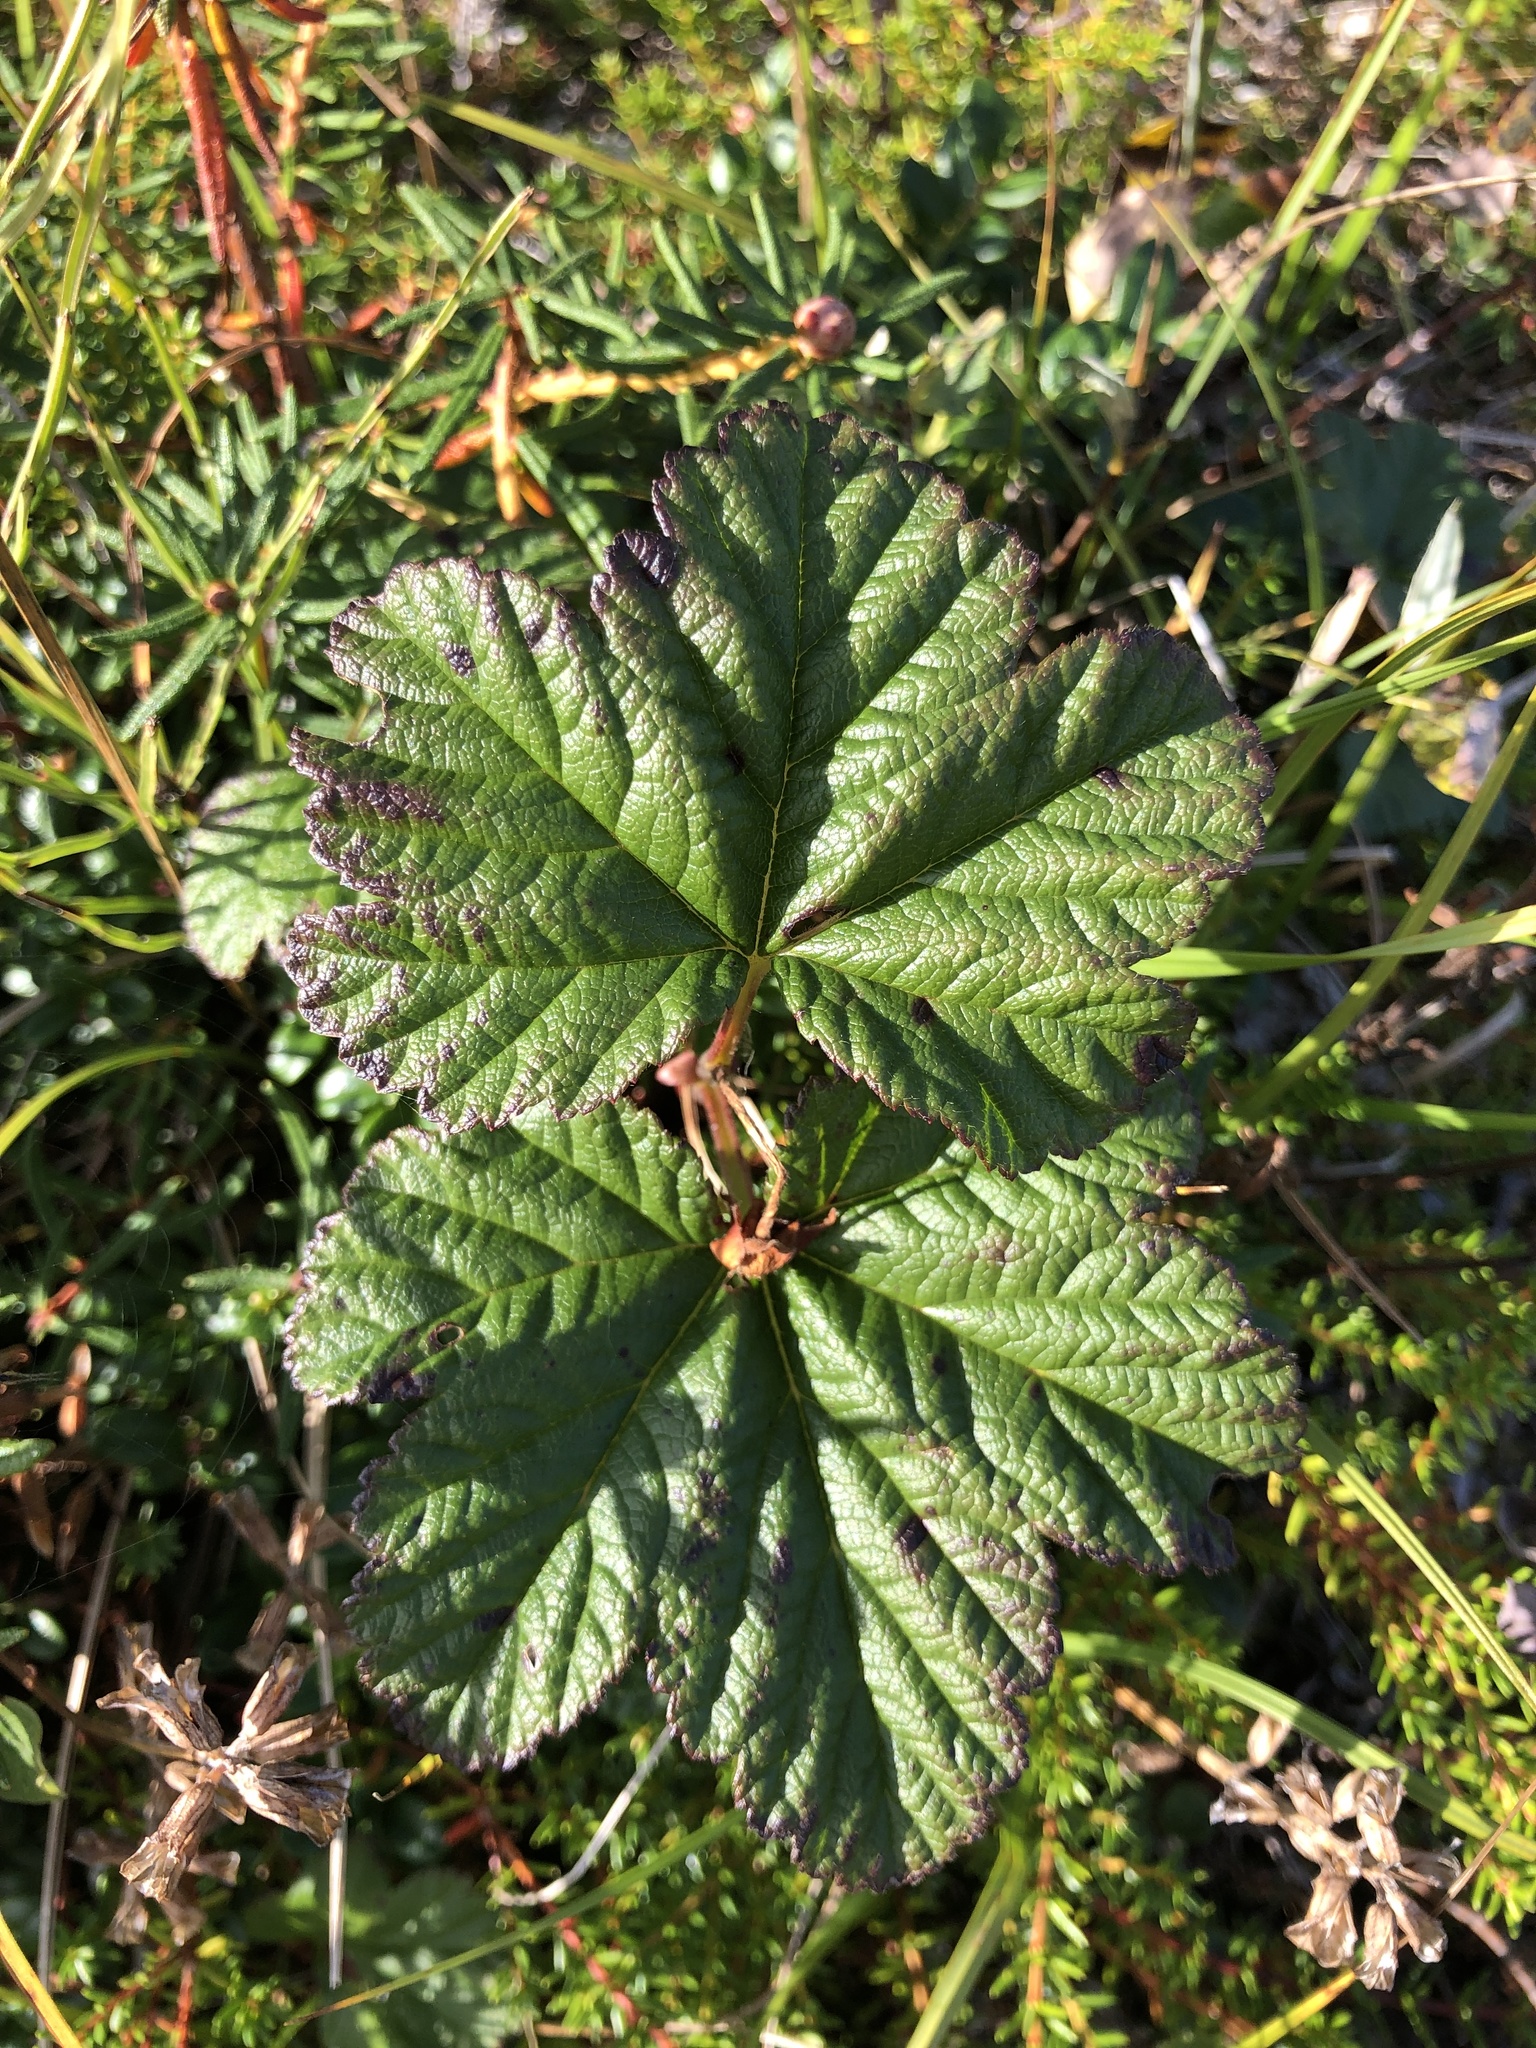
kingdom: Plantae
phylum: Tracheophyta
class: Magnoliopsida
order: Rosales
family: Rosaceae
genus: Rubus
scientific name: Rubus chamaemorus
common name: Cloudberry
